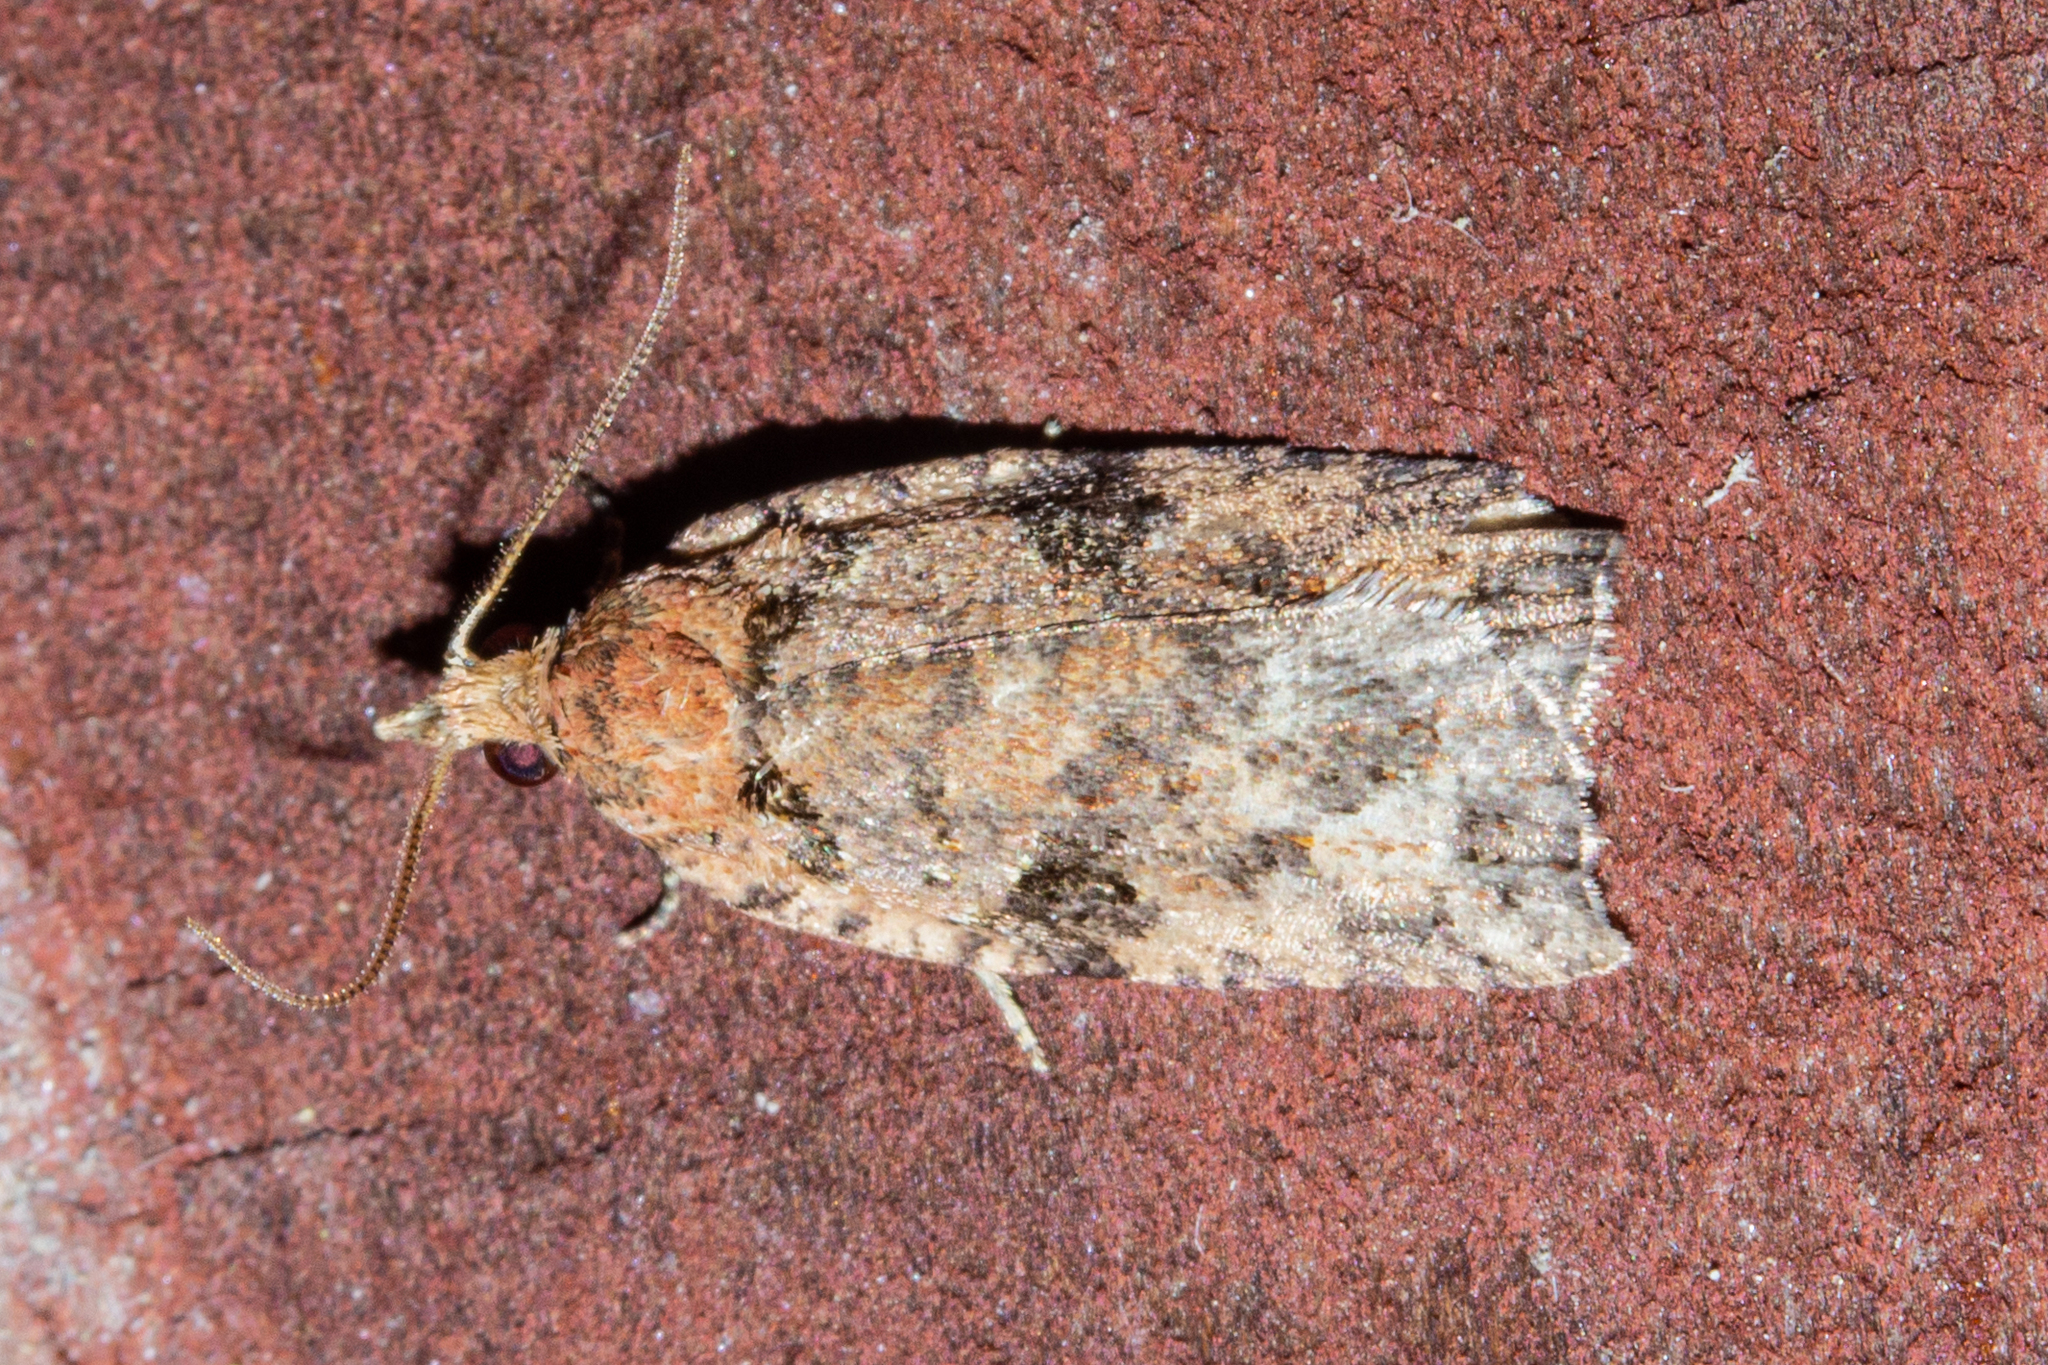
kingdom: Animalia
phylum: Arthropoda
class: Insecta
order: Lepidoptera
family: Tortricidae
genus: Ctenopseustis
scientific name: Ctenopseustis obliquana
